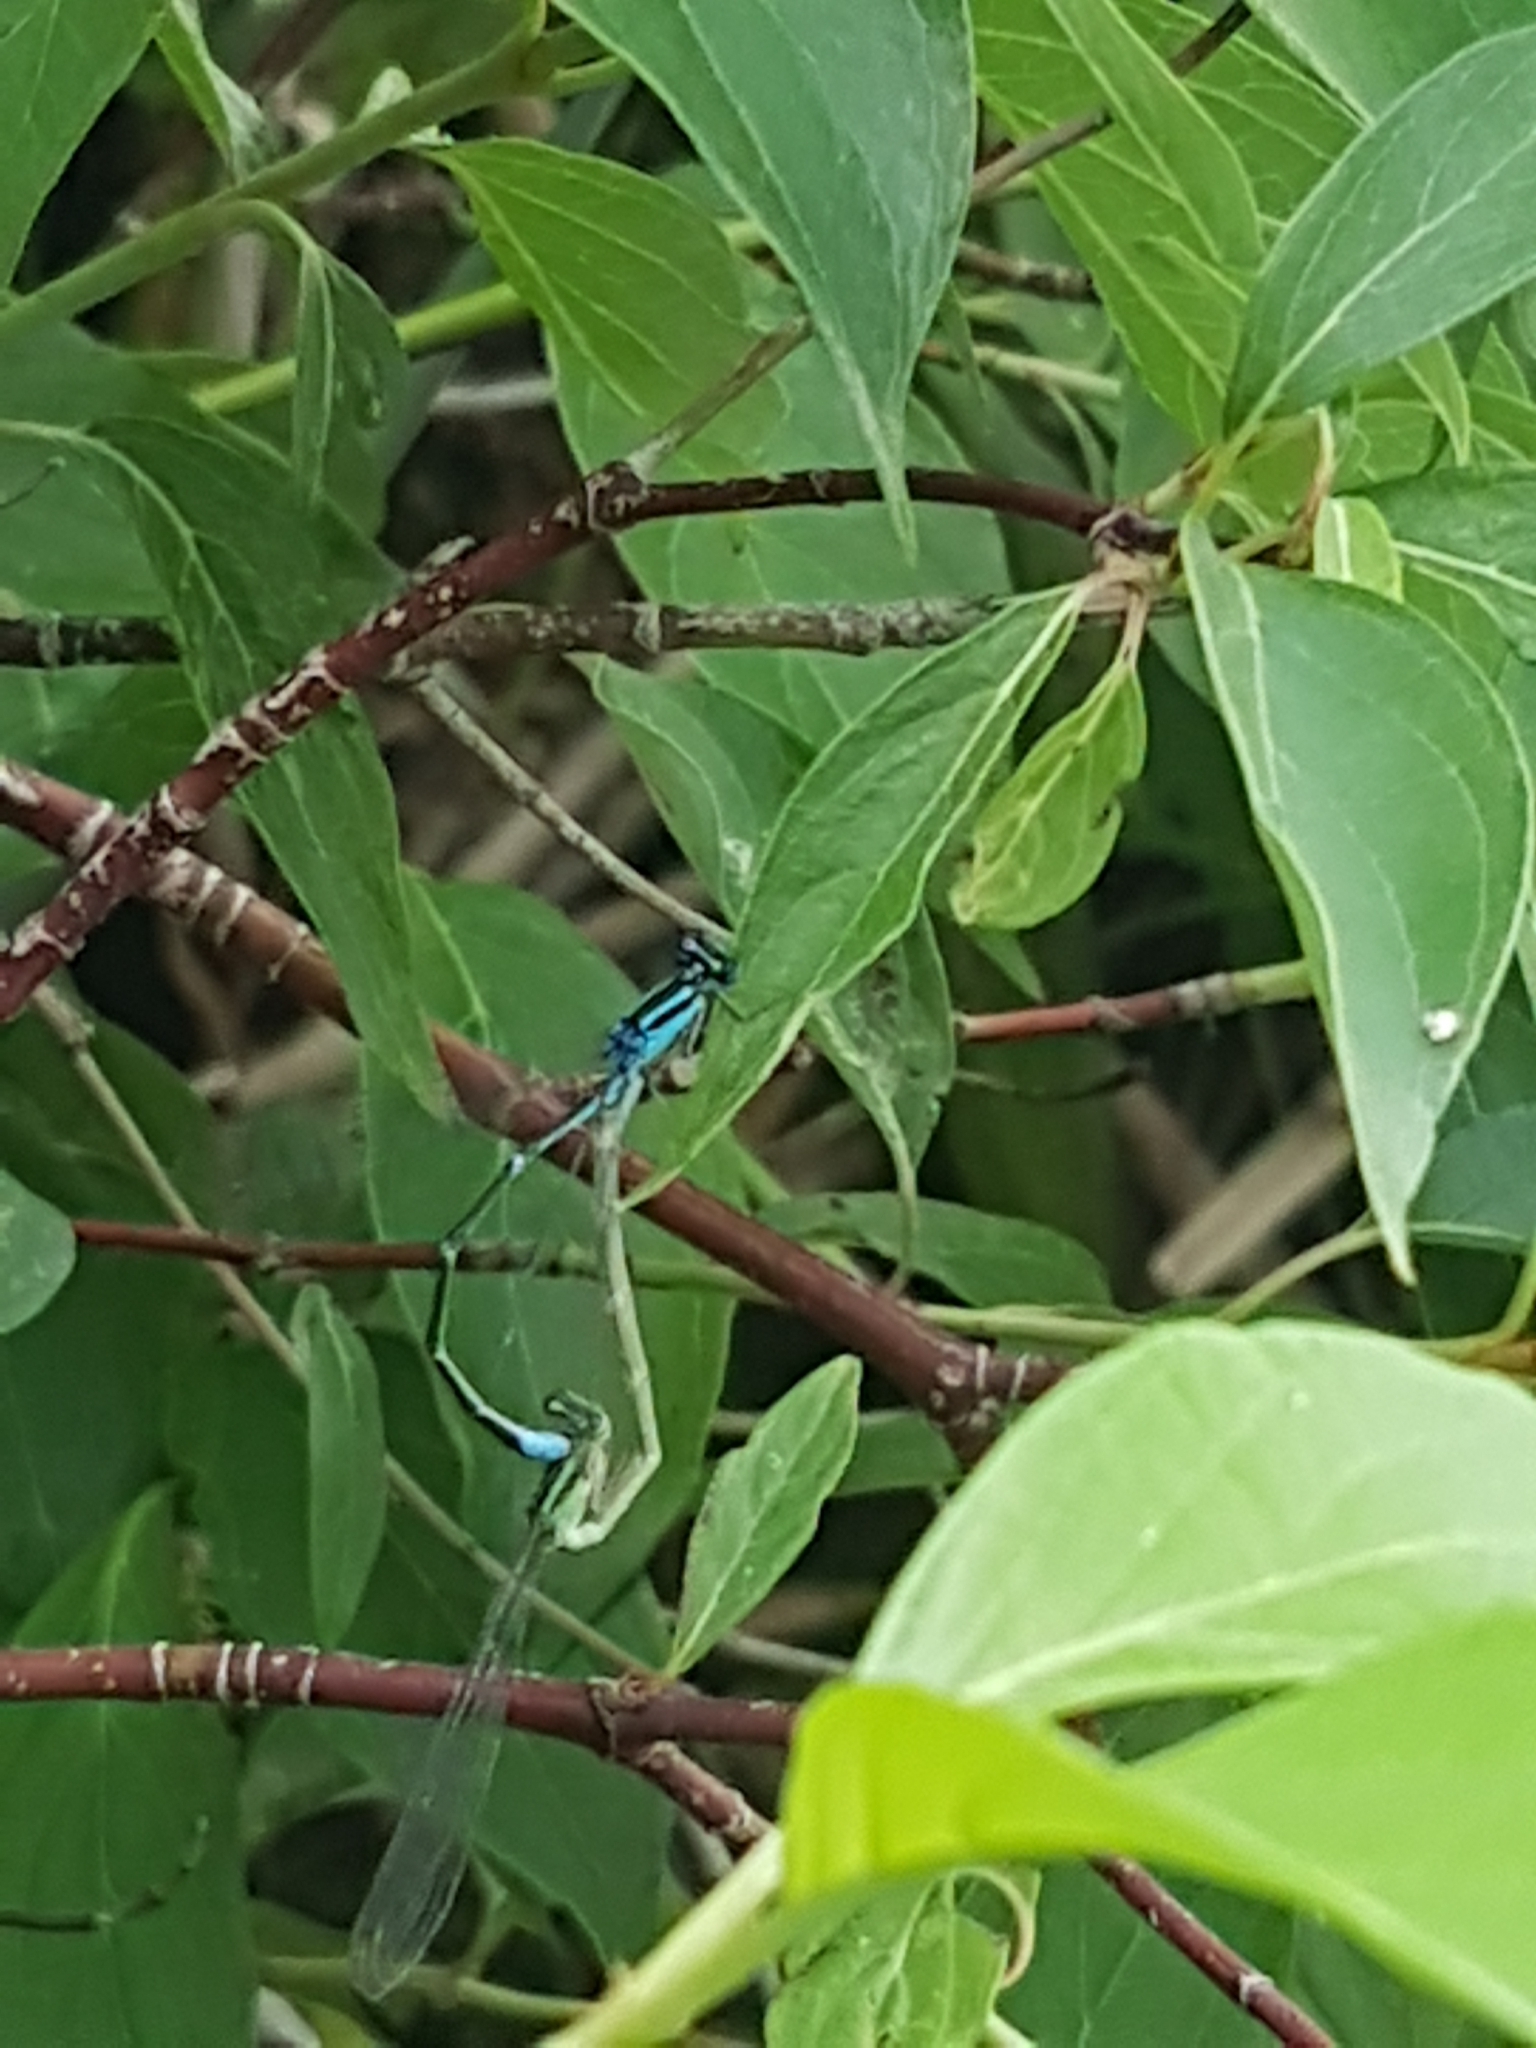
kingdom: Animalia
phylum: Arthropoda
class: Insecta
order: Odonata
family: Coenagrionidae
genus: Enallagma
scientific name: Enallagma exsulans
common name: Stream bluet
